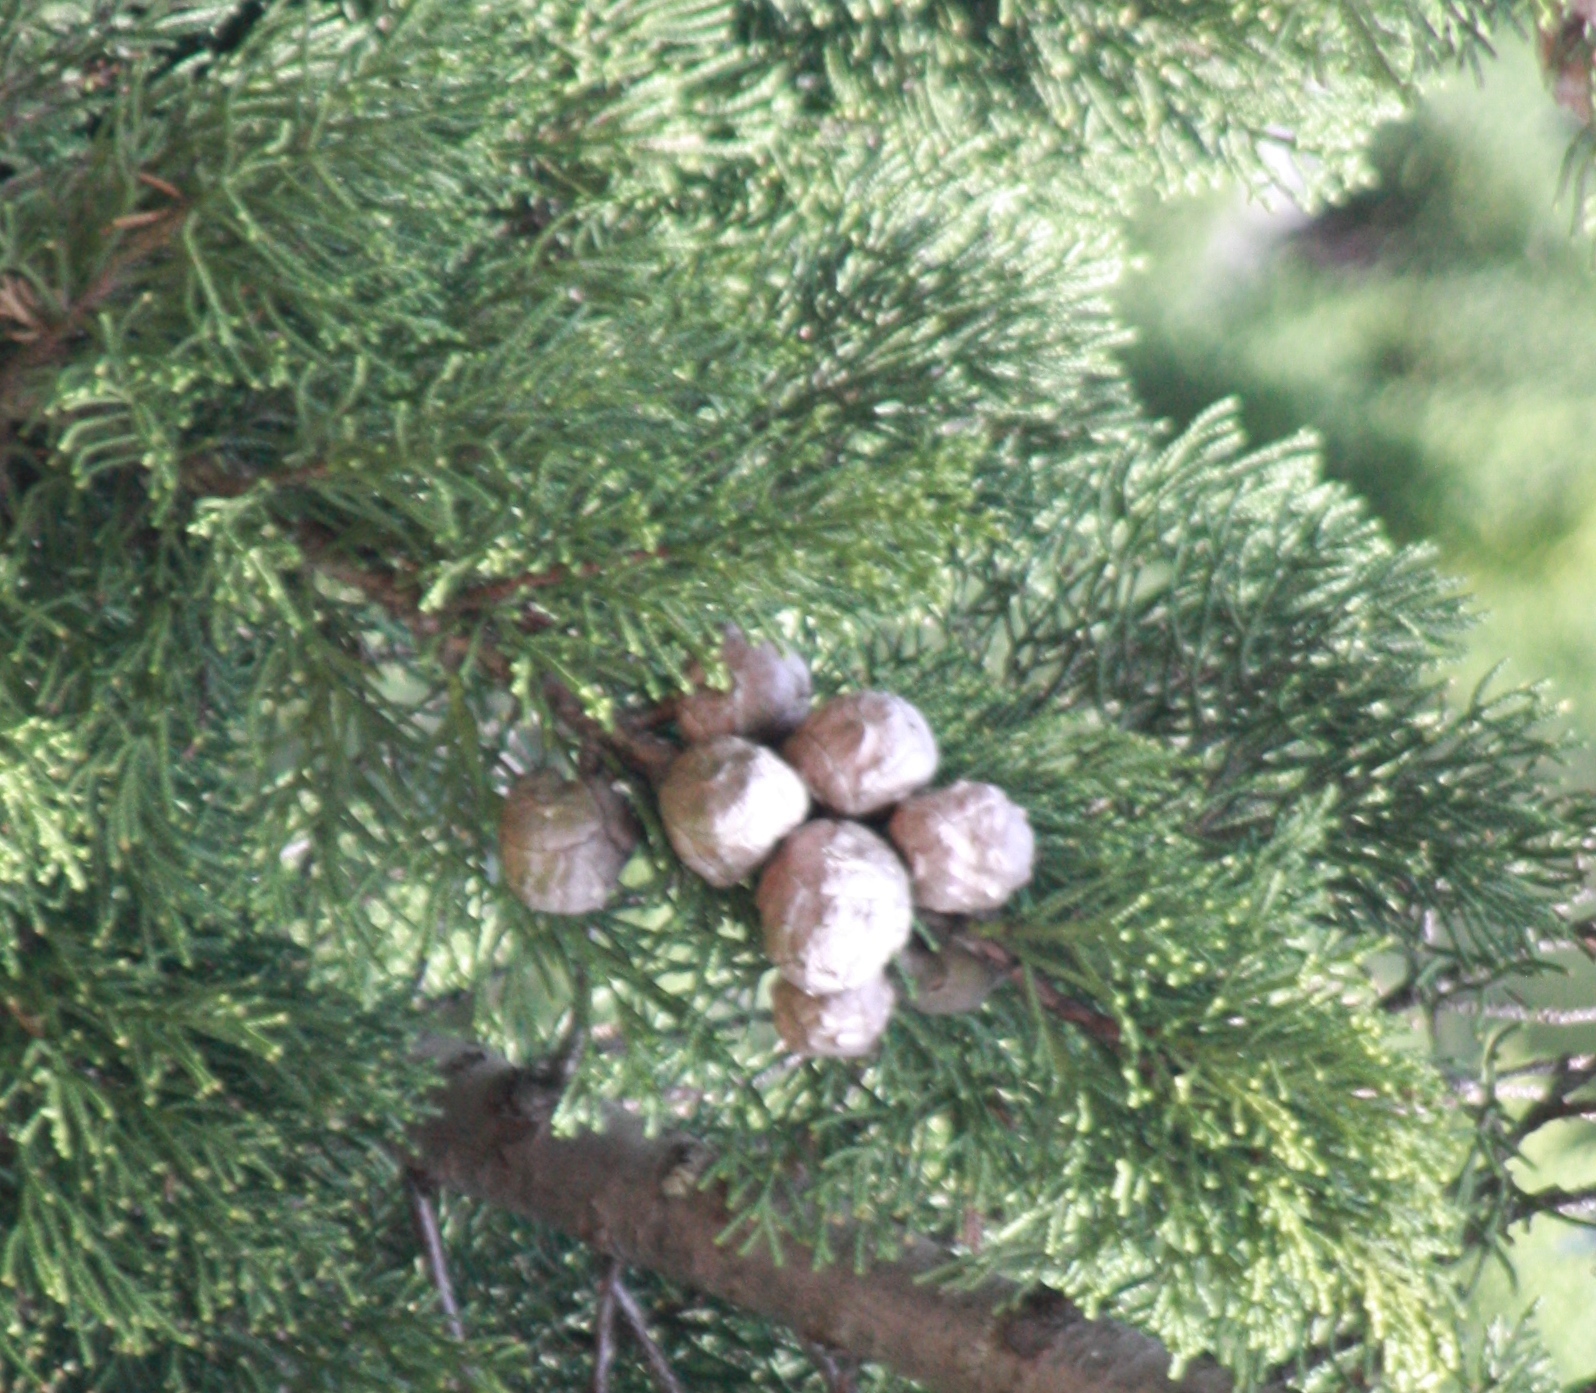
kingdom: Plantae
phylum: Tracheophyta
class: Pinopsida
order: Pinales
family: Cupressaceae
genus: Cupressus
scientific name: Cupressus macrocarpa
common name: Monterey cypress
